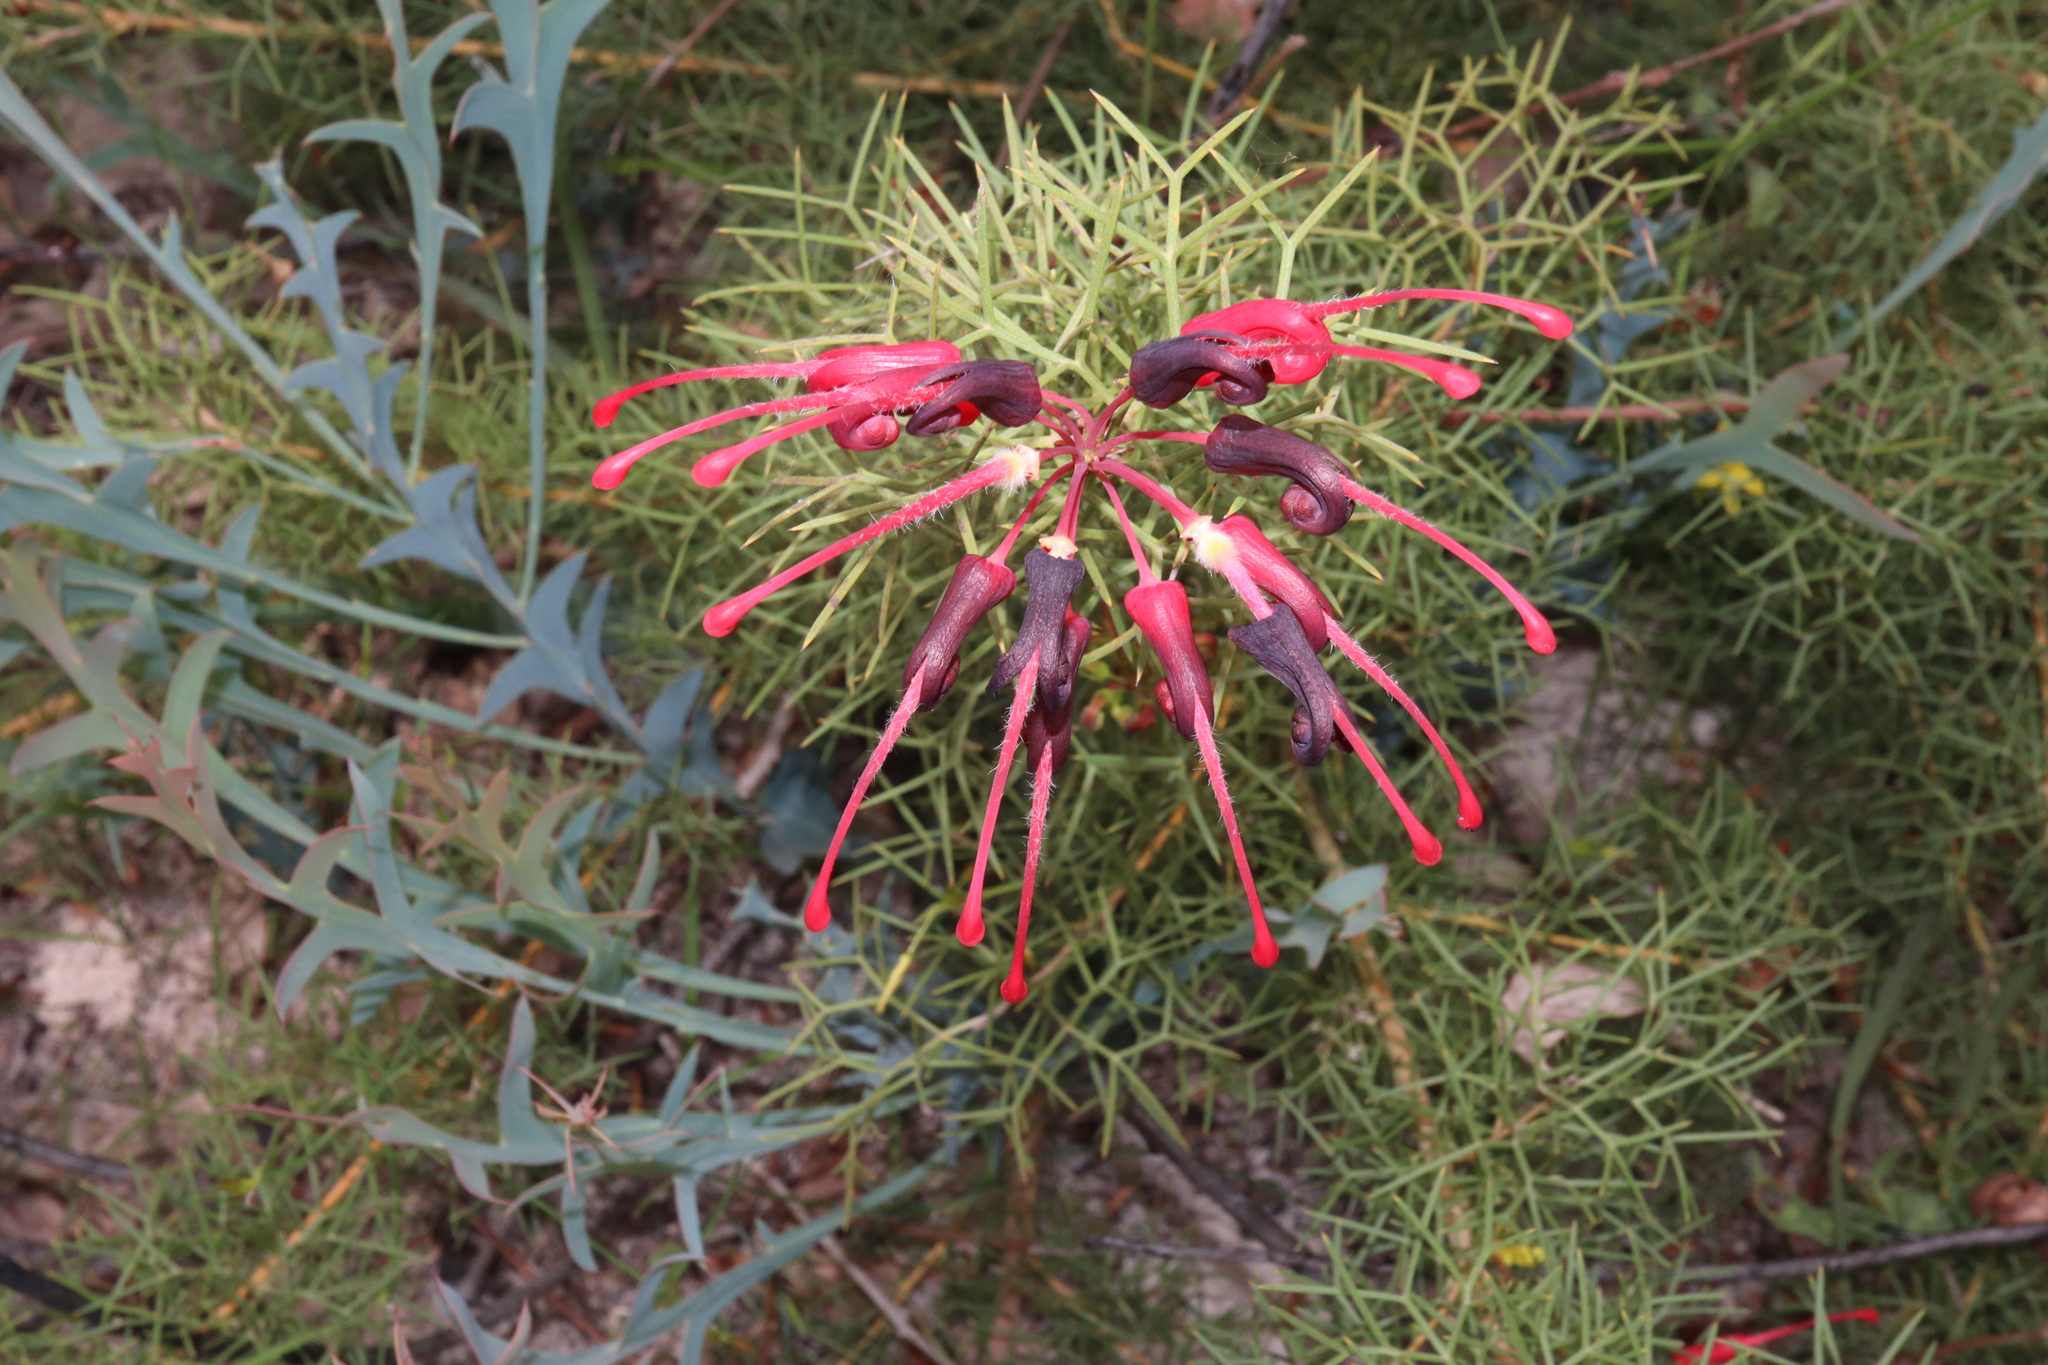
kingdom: Plantae
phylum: Tracheophyta
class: Magnoliopsida
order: Proteales
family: Proteaceae
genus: Grevillea
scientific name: Grevillea wilsonii
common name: Fire-wheel
